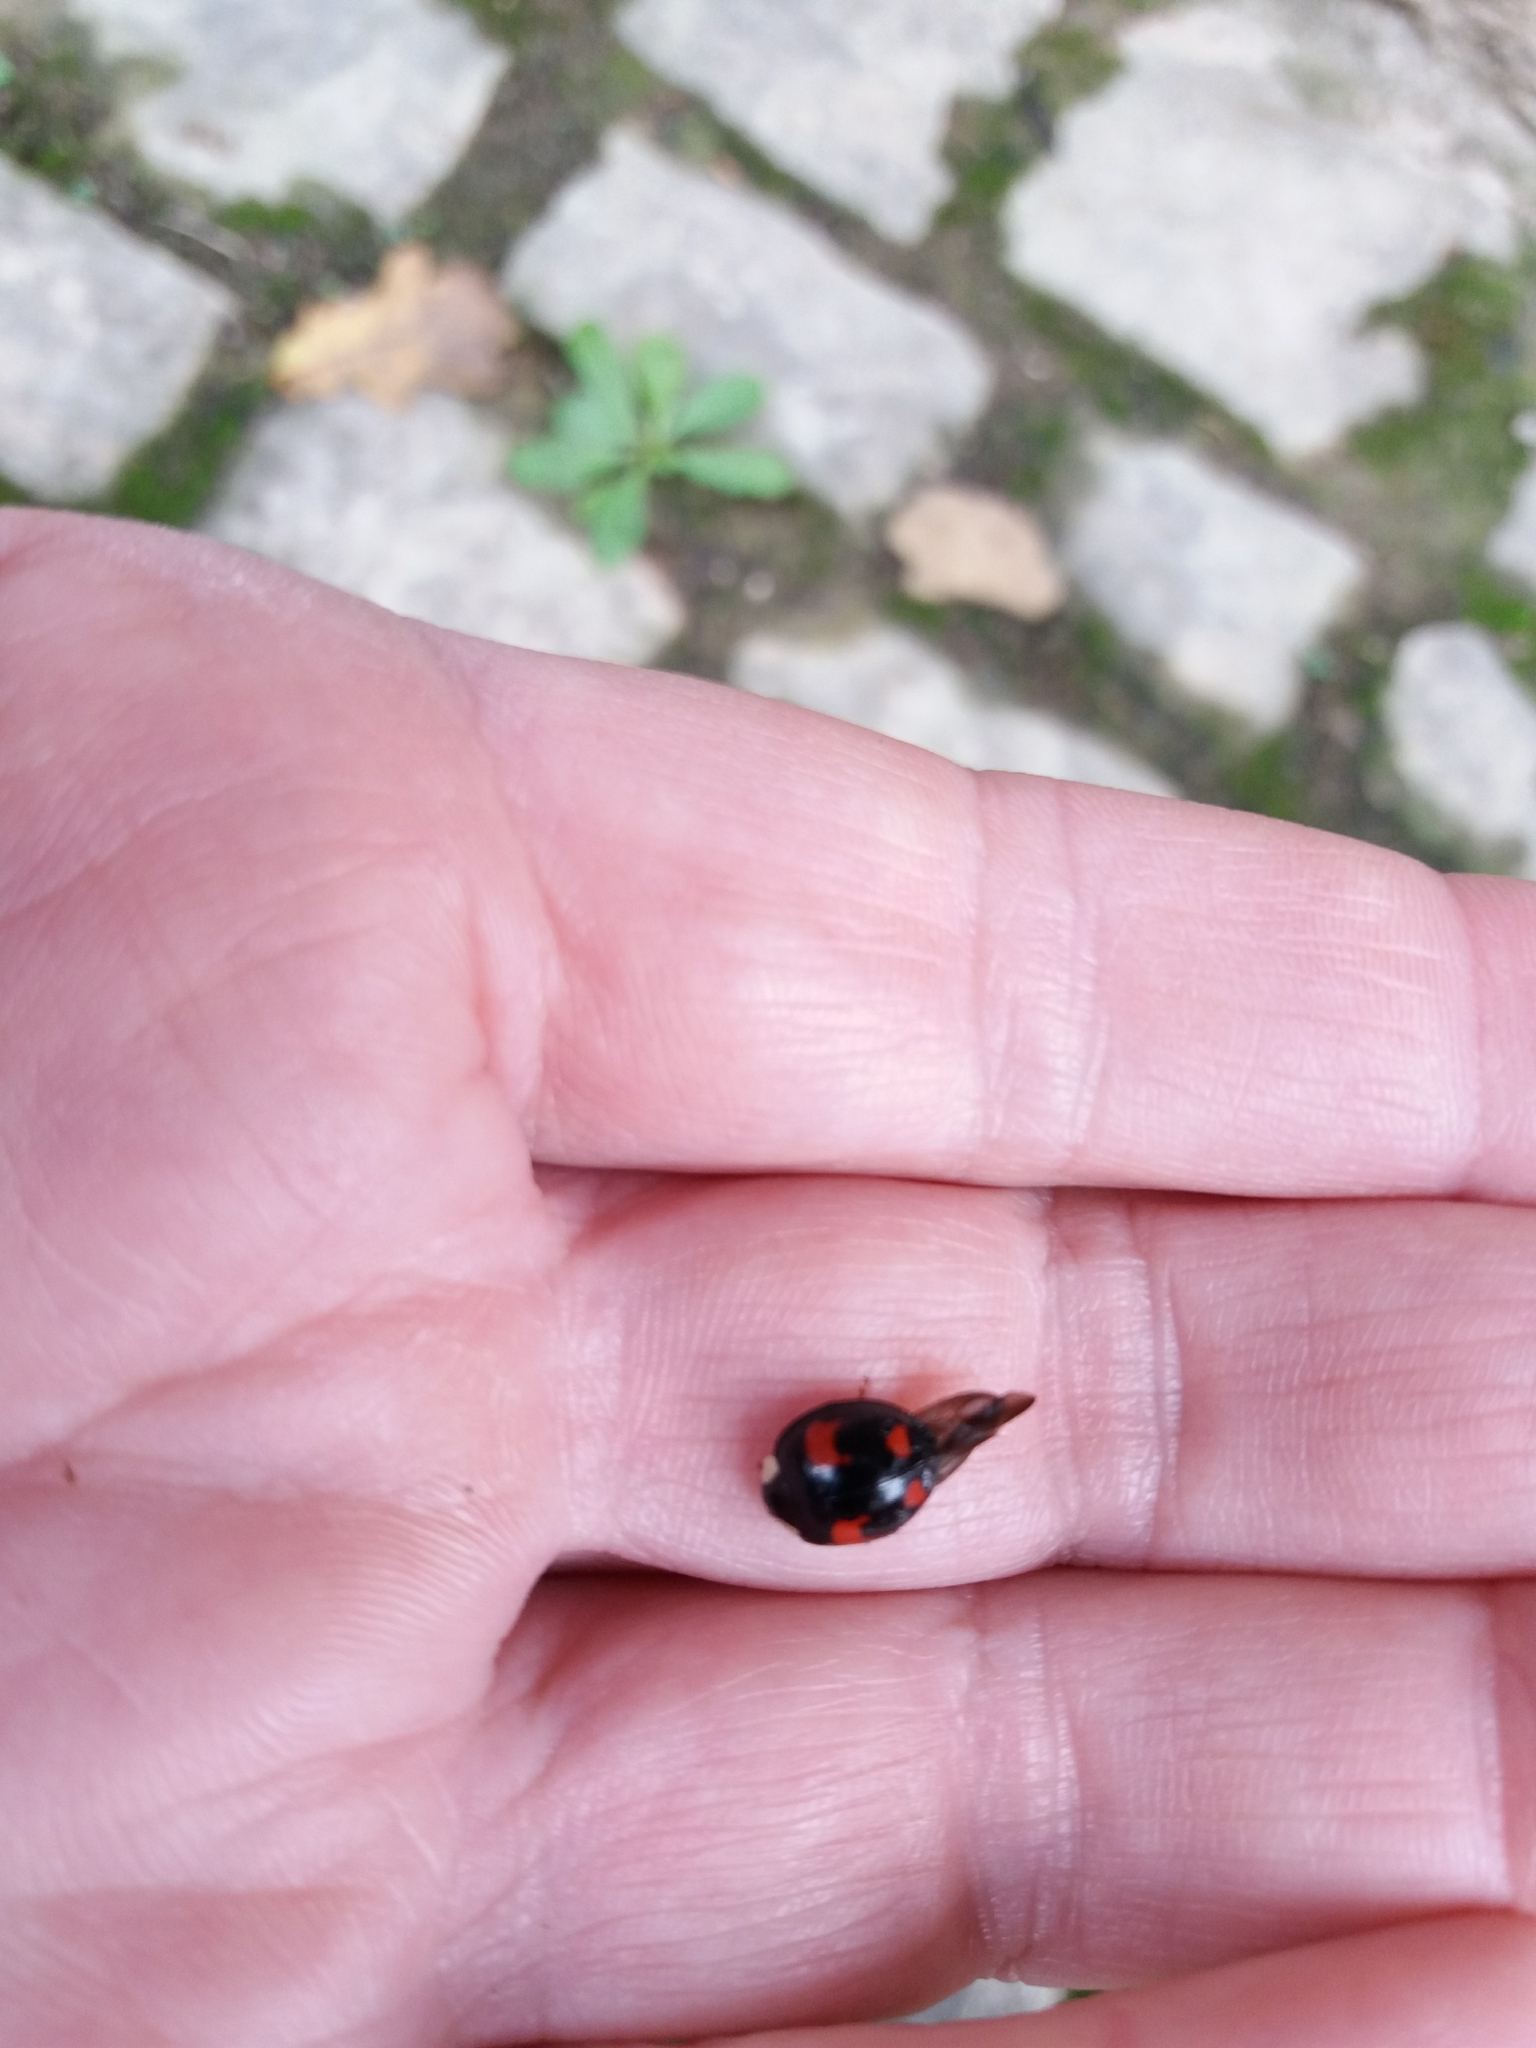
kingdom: Animalia
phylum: Arthropoda
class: Insecta
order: Coleoptera
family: Coccinellidae
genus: Harmonia
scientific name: Harmonia axyridis
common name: Harlequin ladybird
